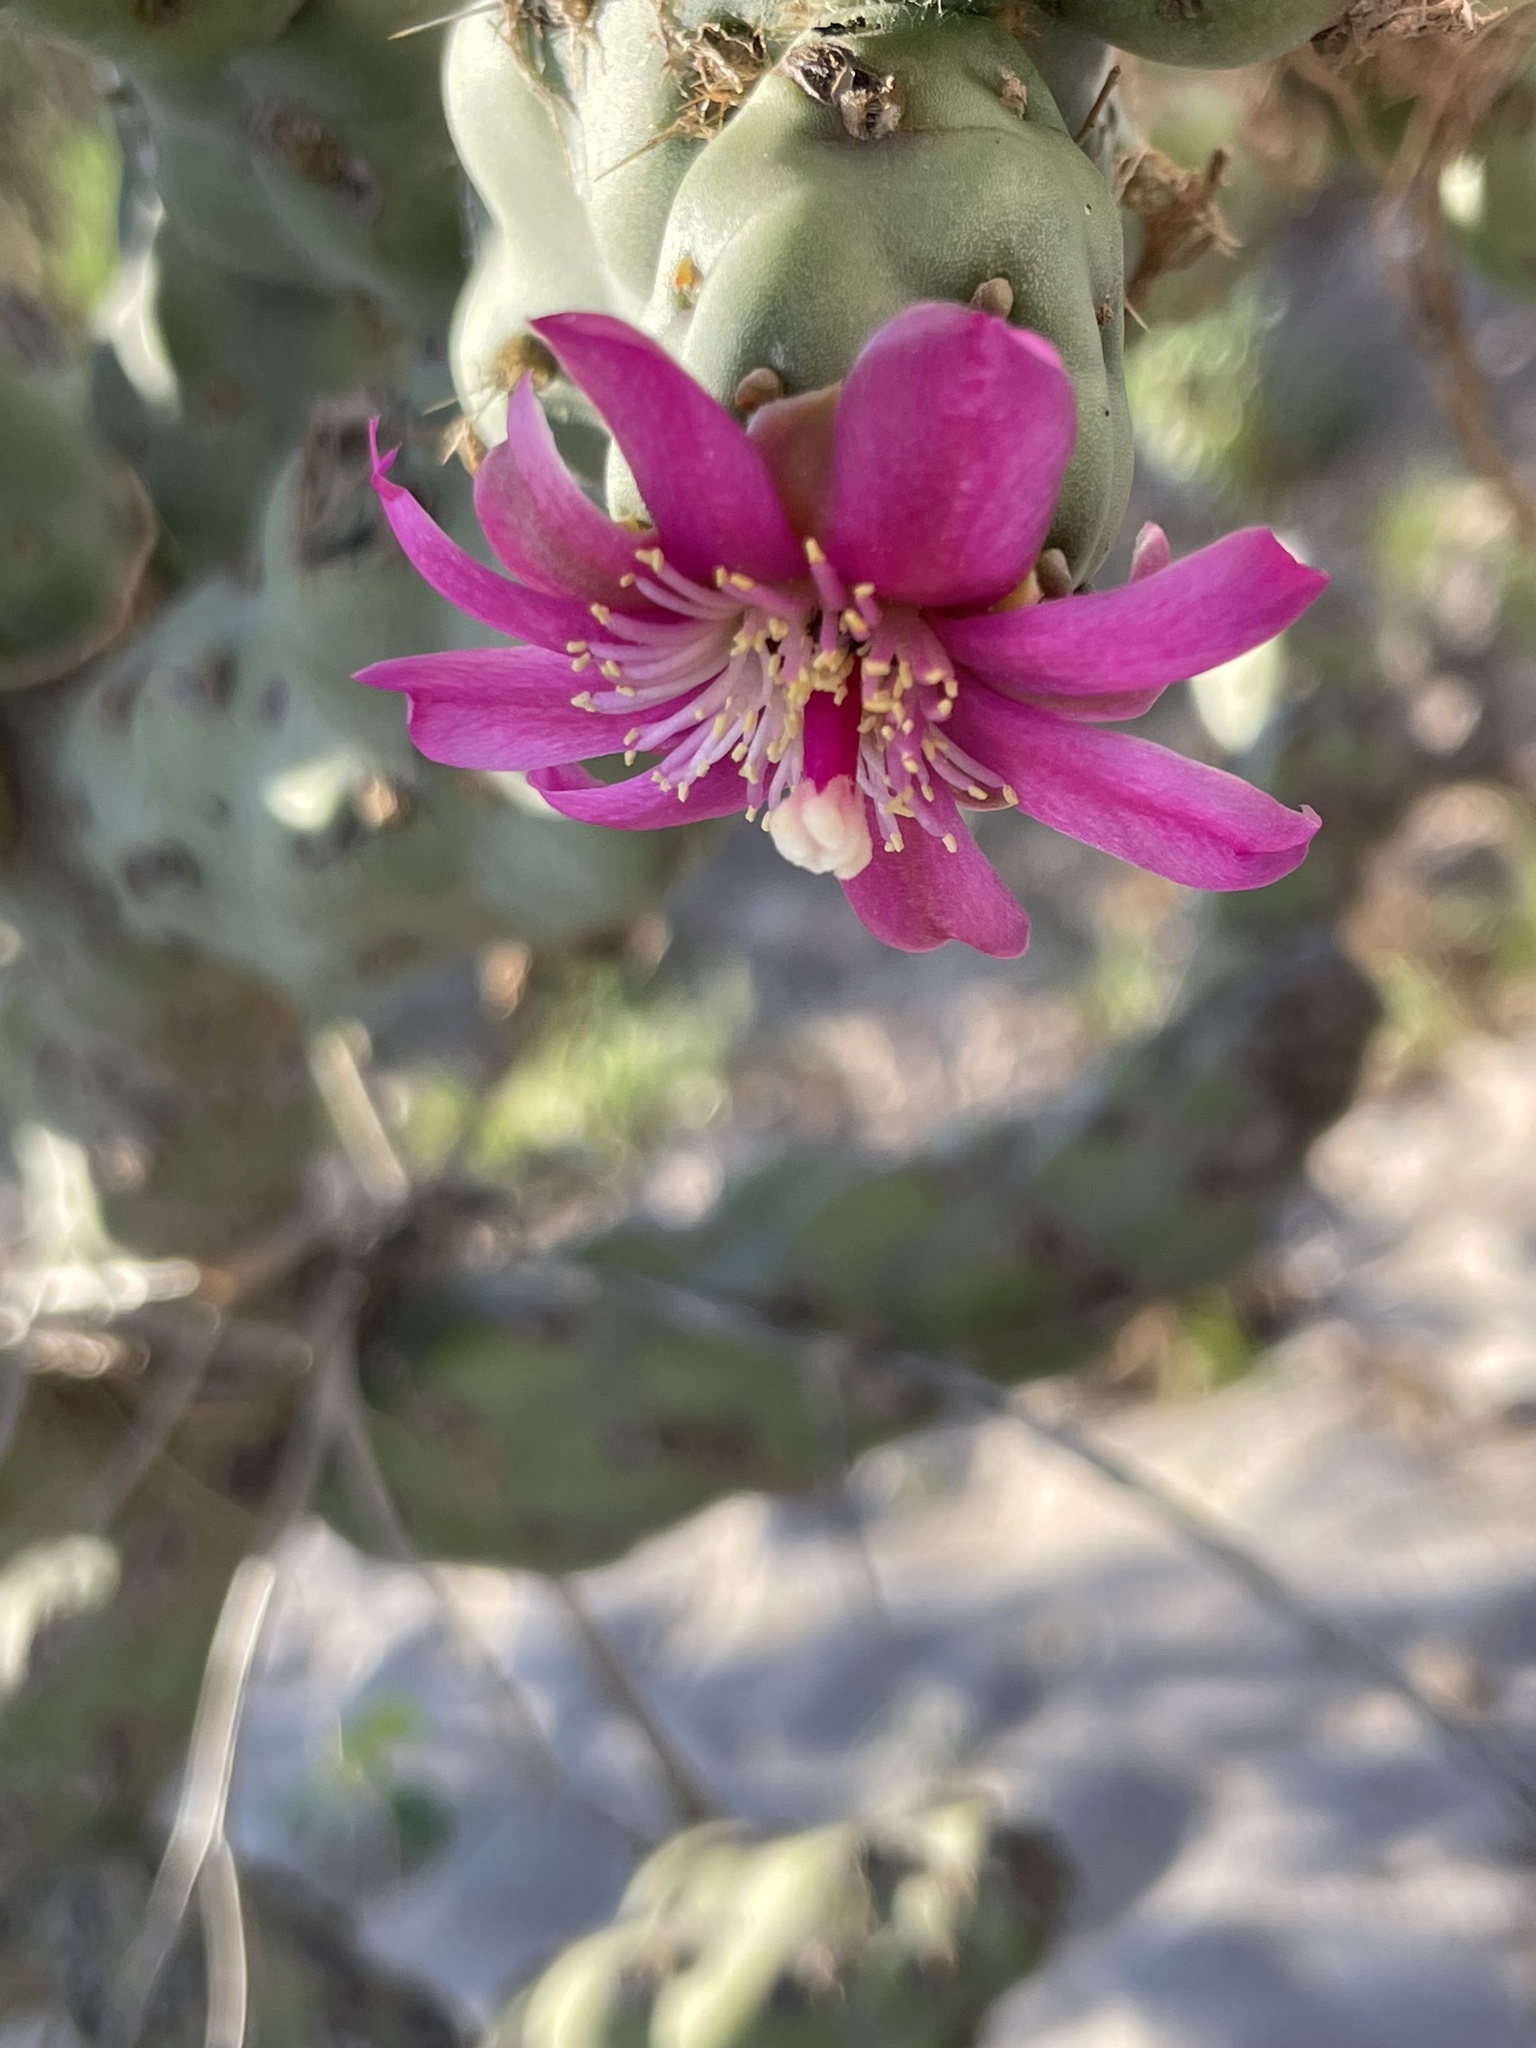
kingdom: Plantae
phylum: Tracheophyta
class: Magnoliopsida
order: Caryophyllales
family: Cactaceae
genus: Cylindropuntia
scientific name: Cylindropuntia cholla
